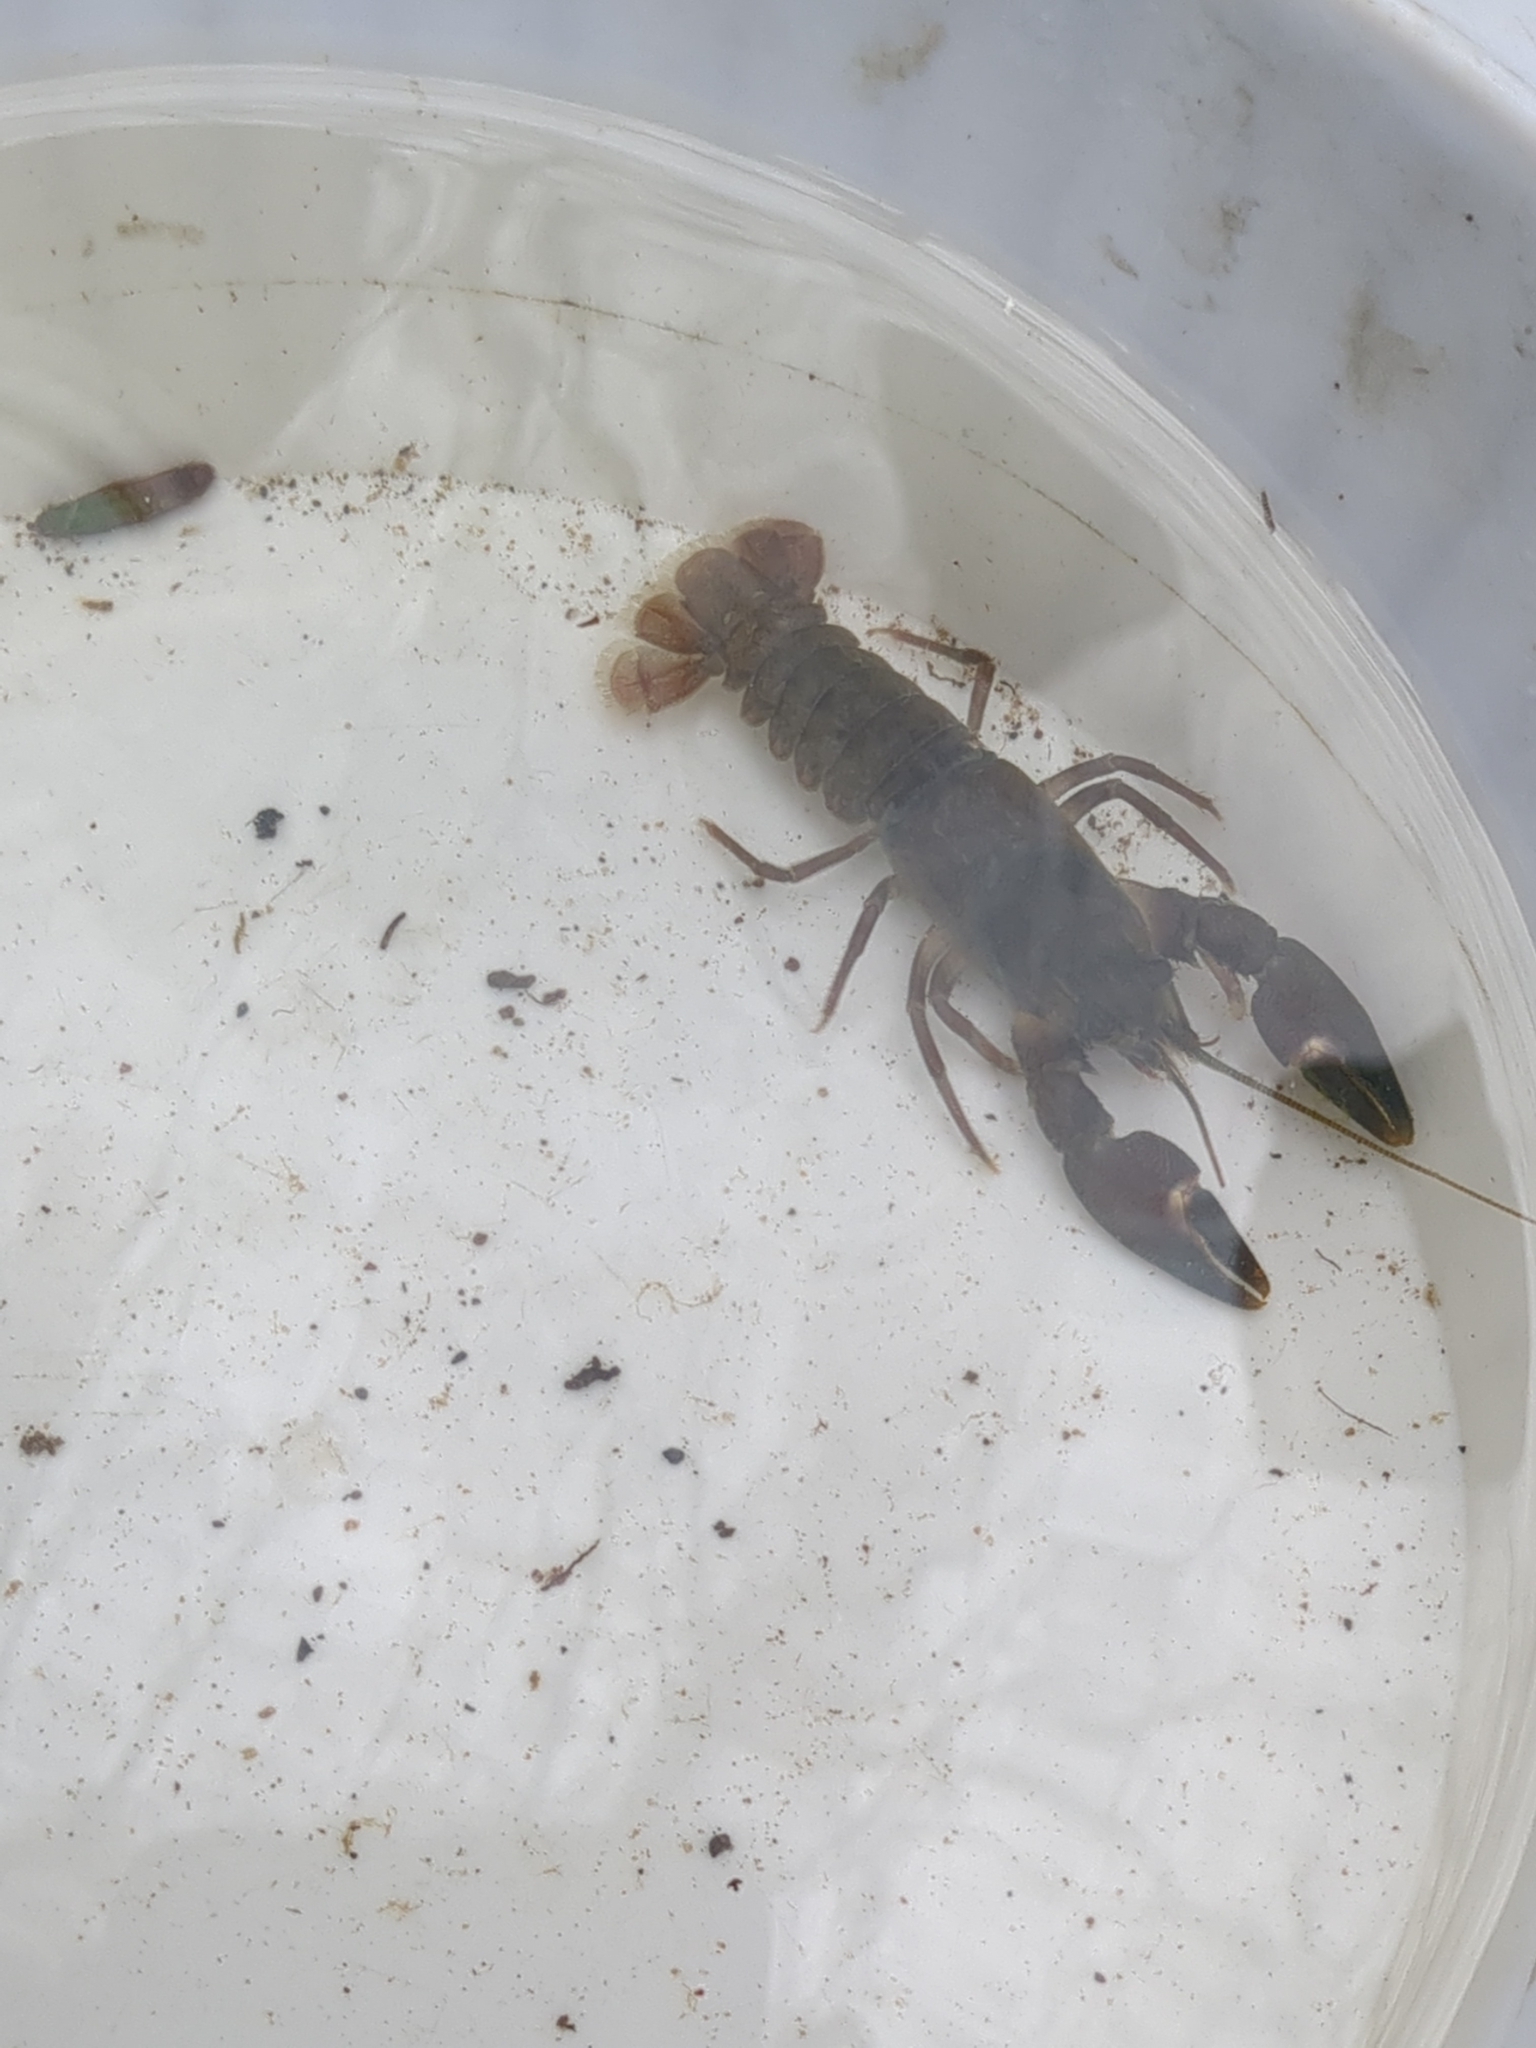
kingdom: Animalia
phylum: Arthropoda
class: Malacostraca
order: Decapoda
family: Astacidae
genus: Pacifastacus
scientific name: Pacifastacus leniusculus
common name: Signal crayfish
